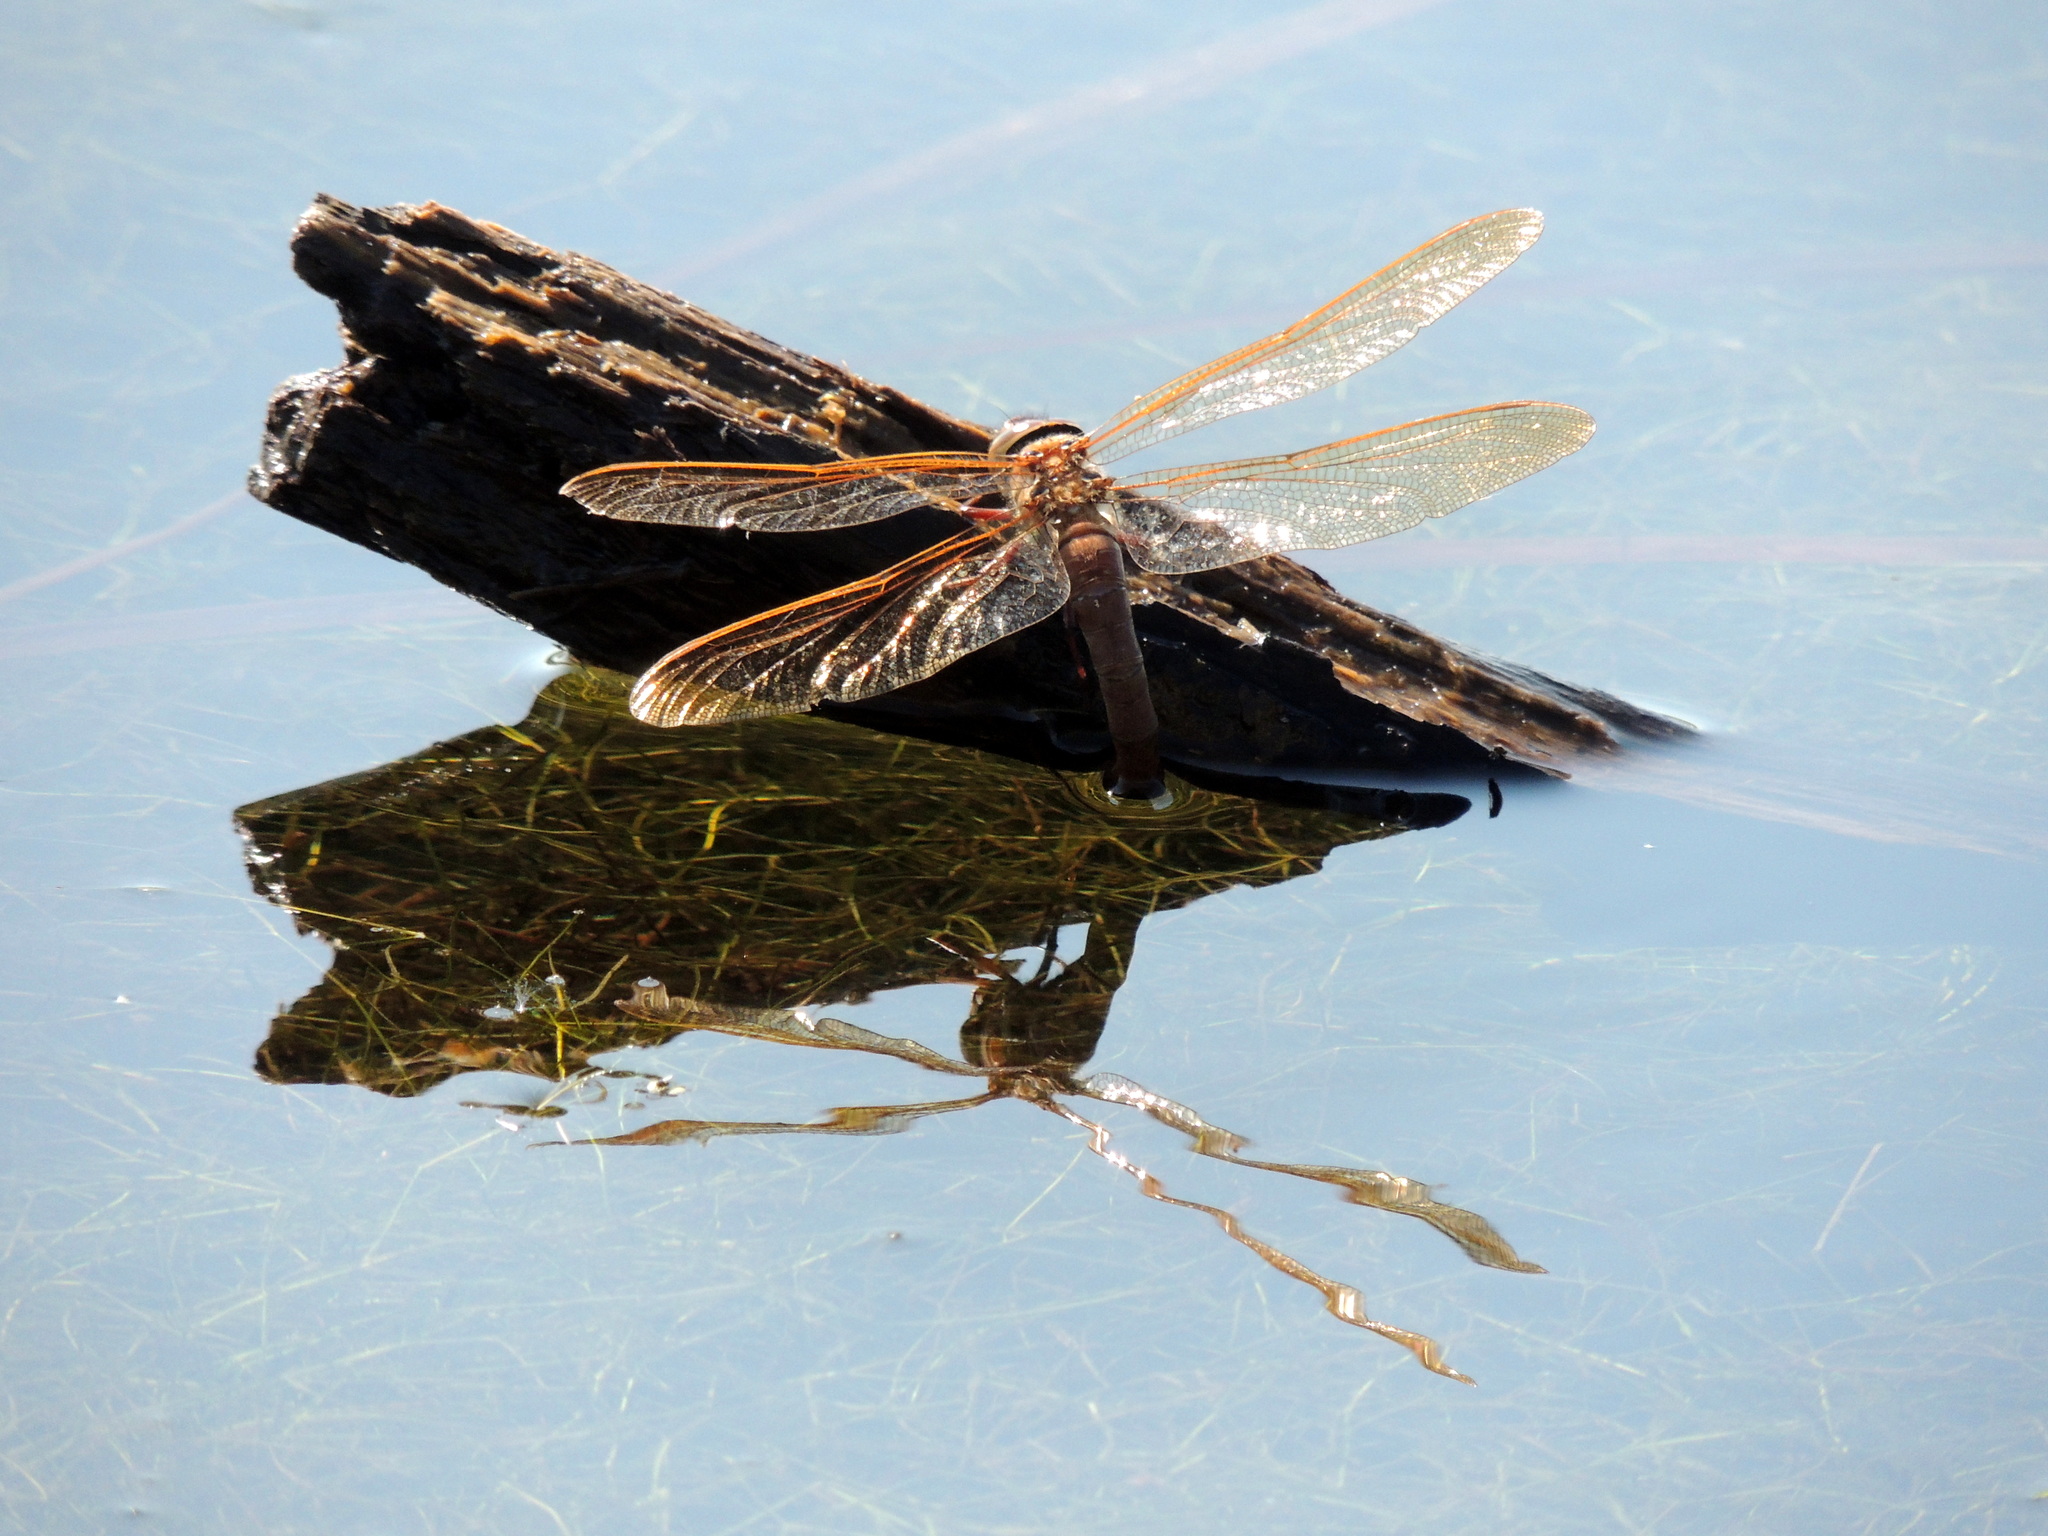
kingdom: Animalia
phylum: Arthropoda
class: Insecta
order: Odonata
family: Aeshnidae
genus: Aeshna
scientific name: Aeshna grandis
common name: Brown hawker
